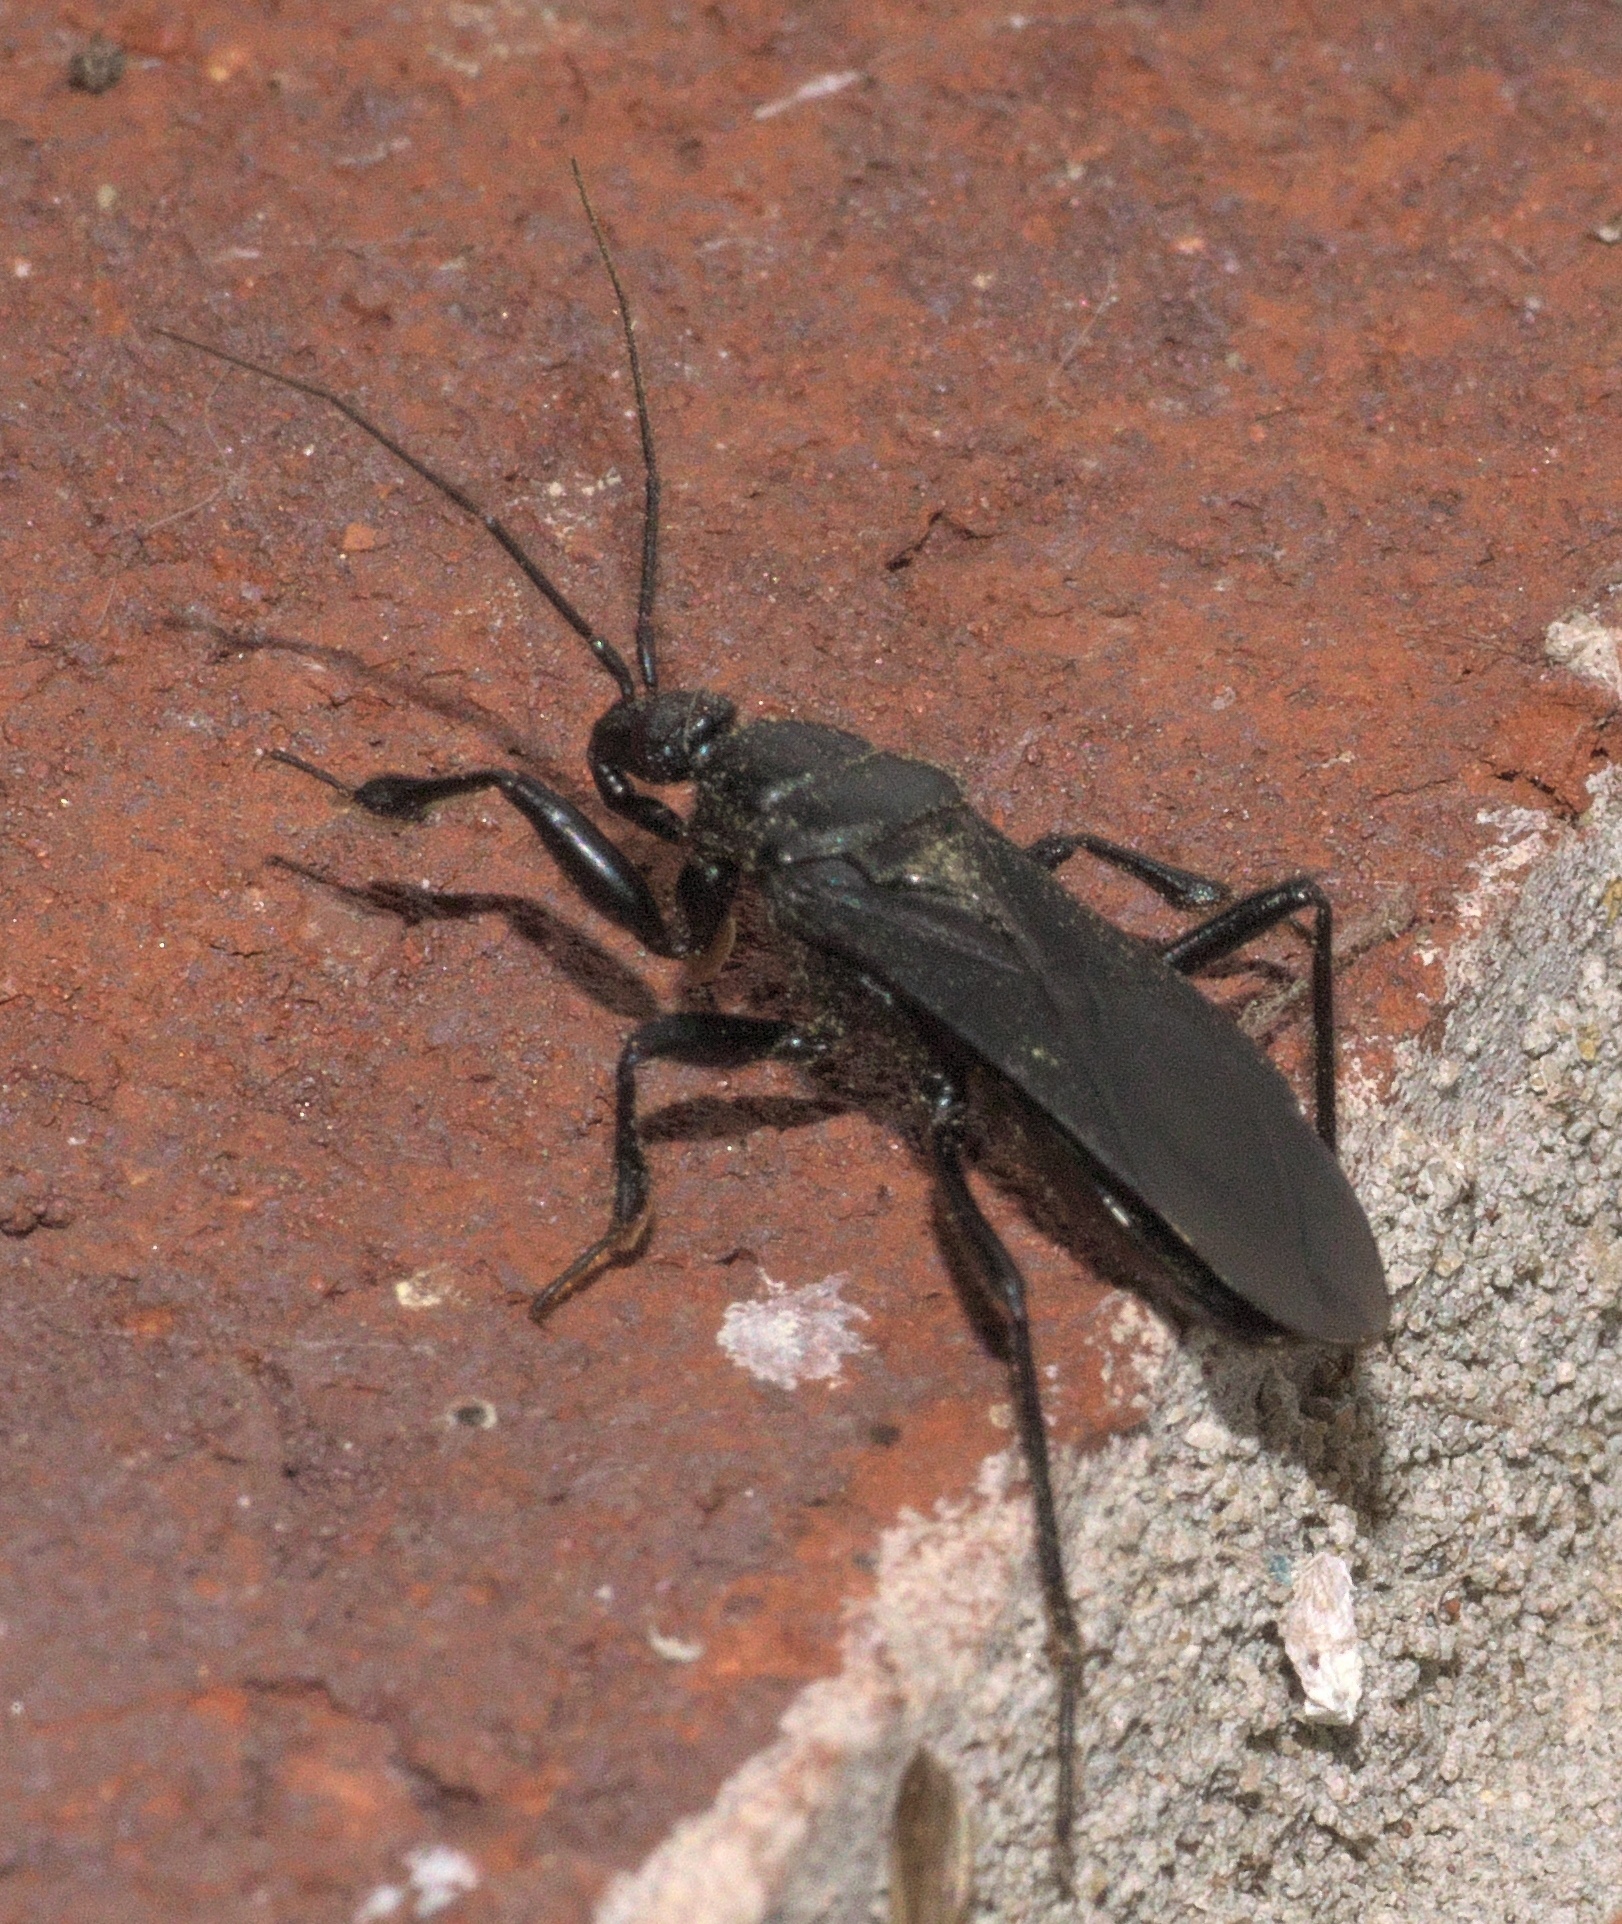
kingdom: Animalia
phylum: Arthropoda
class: Insecta
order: Hemiptera
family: Reduviidae
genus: Melanolestes
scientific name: Melanolestes picipes
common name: Assassin bug
